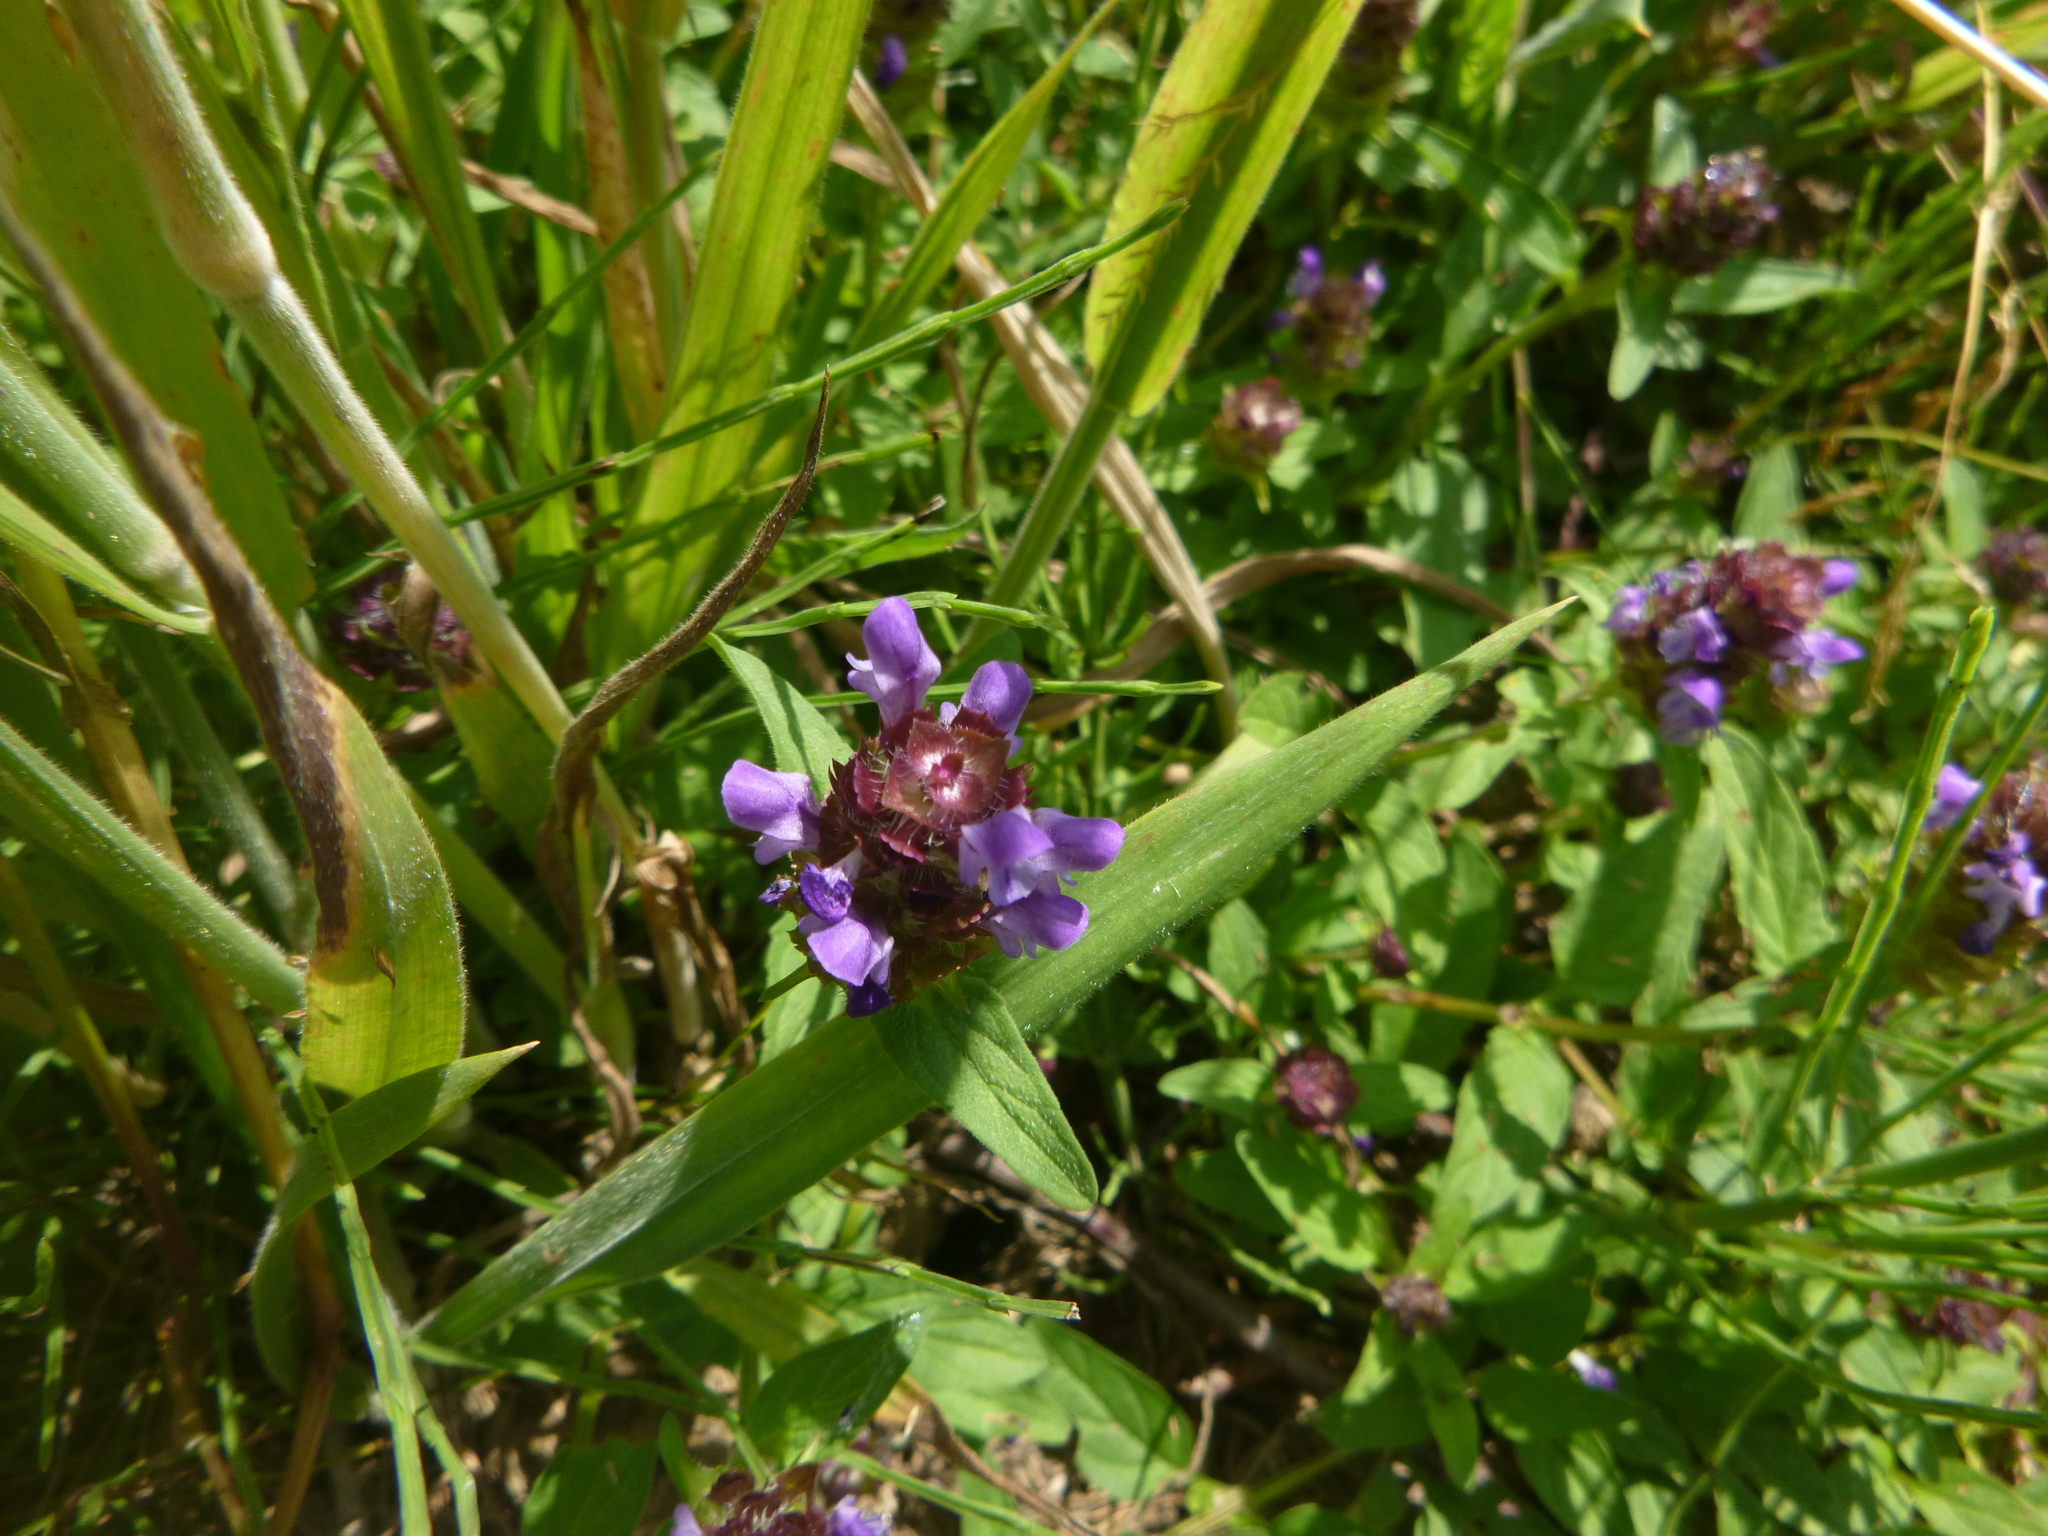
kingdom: Plantae
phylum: Tracheophyta
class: Magnoliopsida
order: Lamiales
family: Lamiaceae
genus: Prunella
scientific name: Prunella vulgaris
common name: Heal-all
